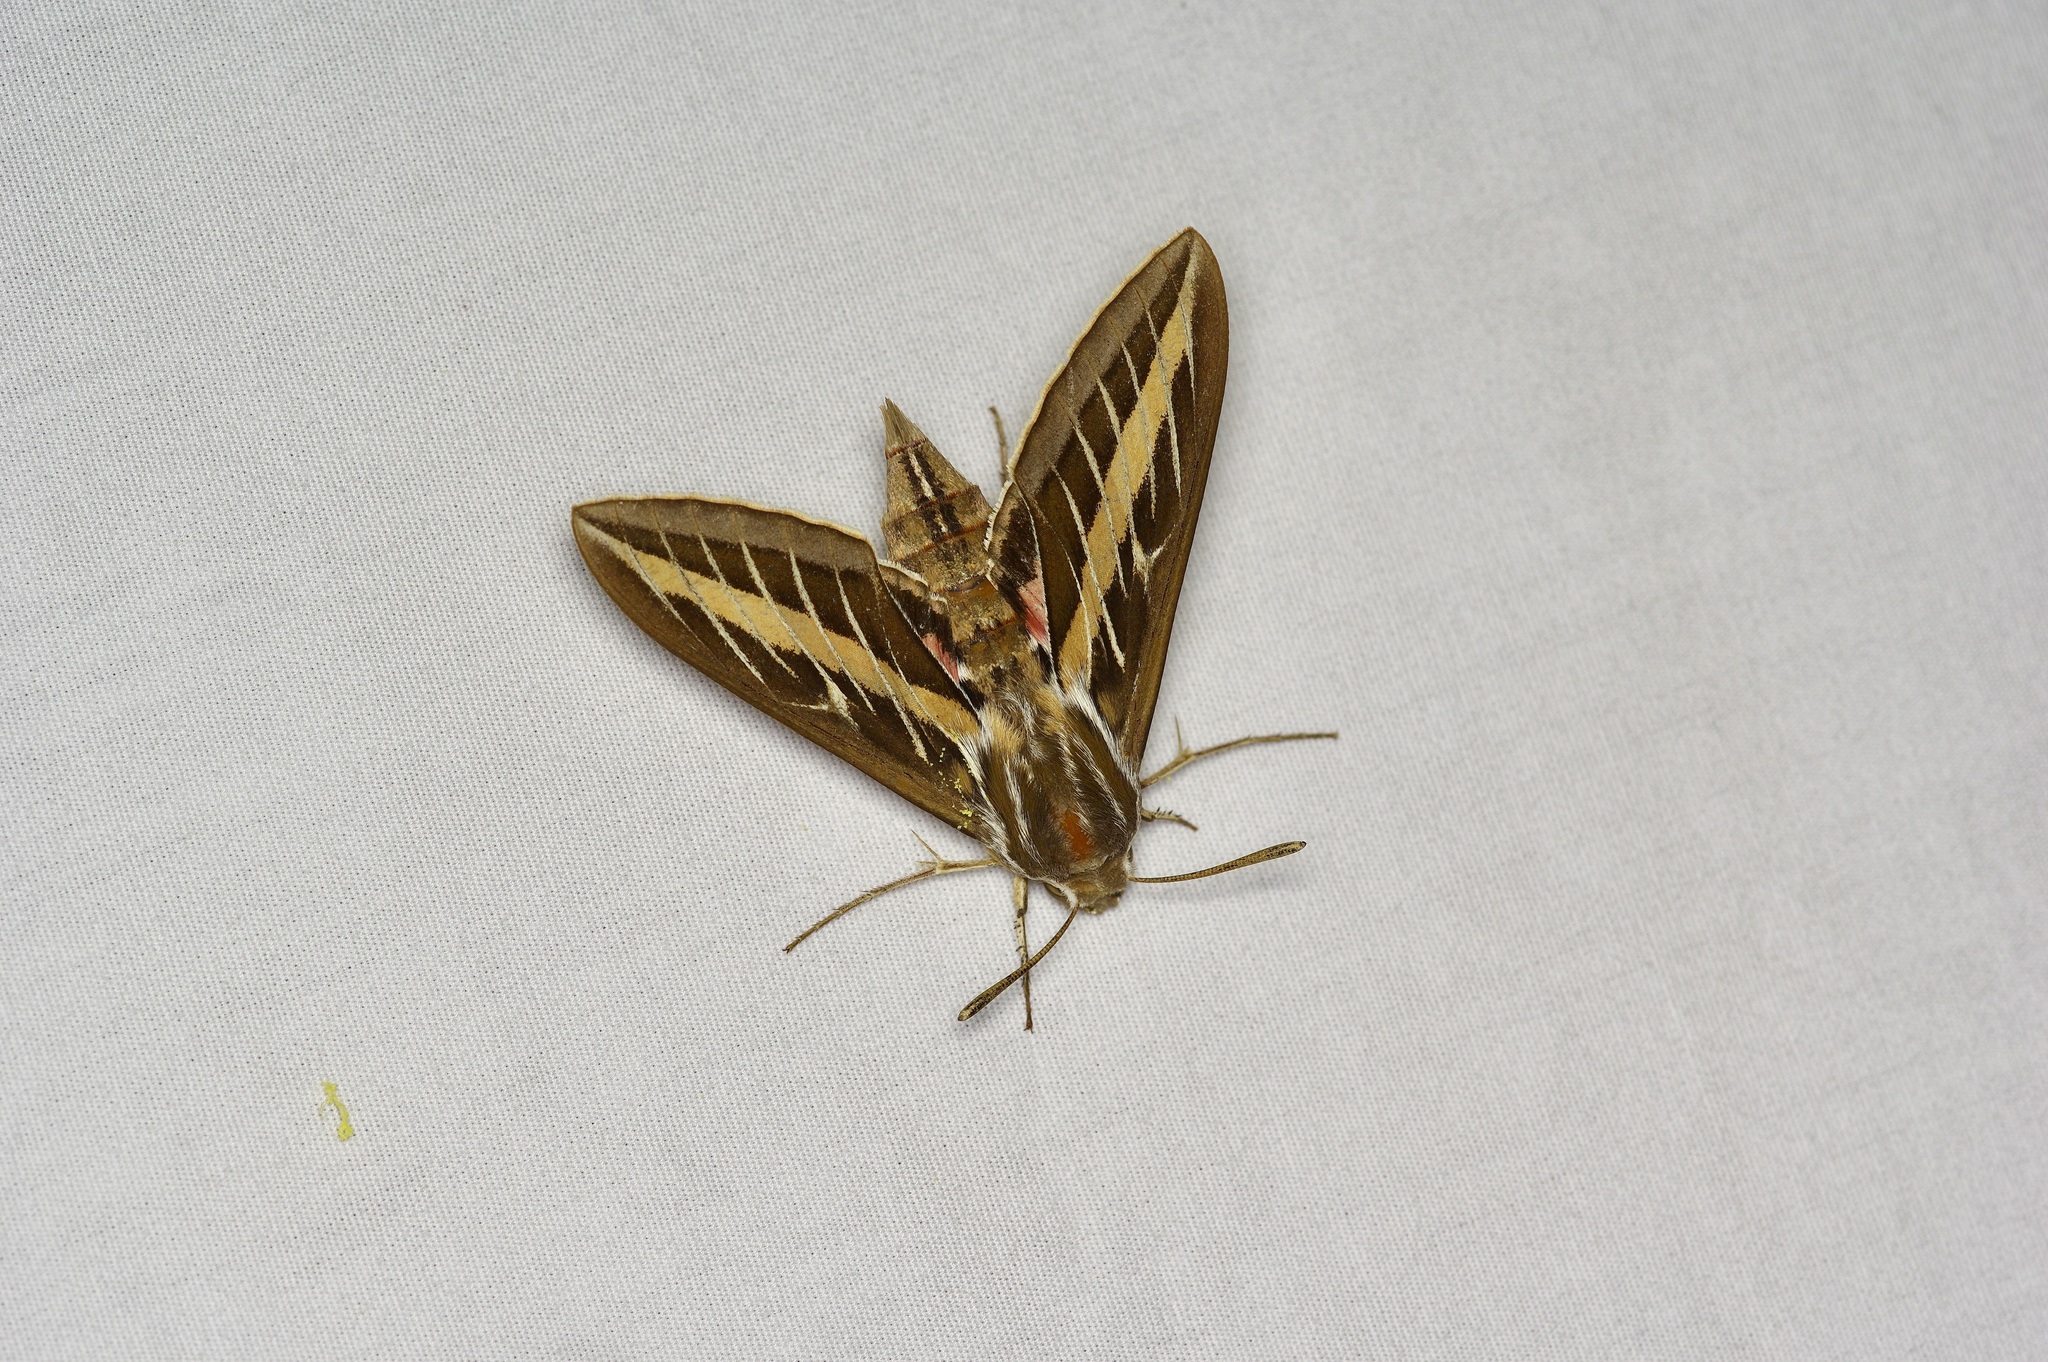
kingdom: Animalia
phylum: Arthropoda
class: Insecta
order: Lepidoptera
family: Sphingidae
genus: Hyles
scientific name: Hyles lineata
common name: White-lined sphinx
